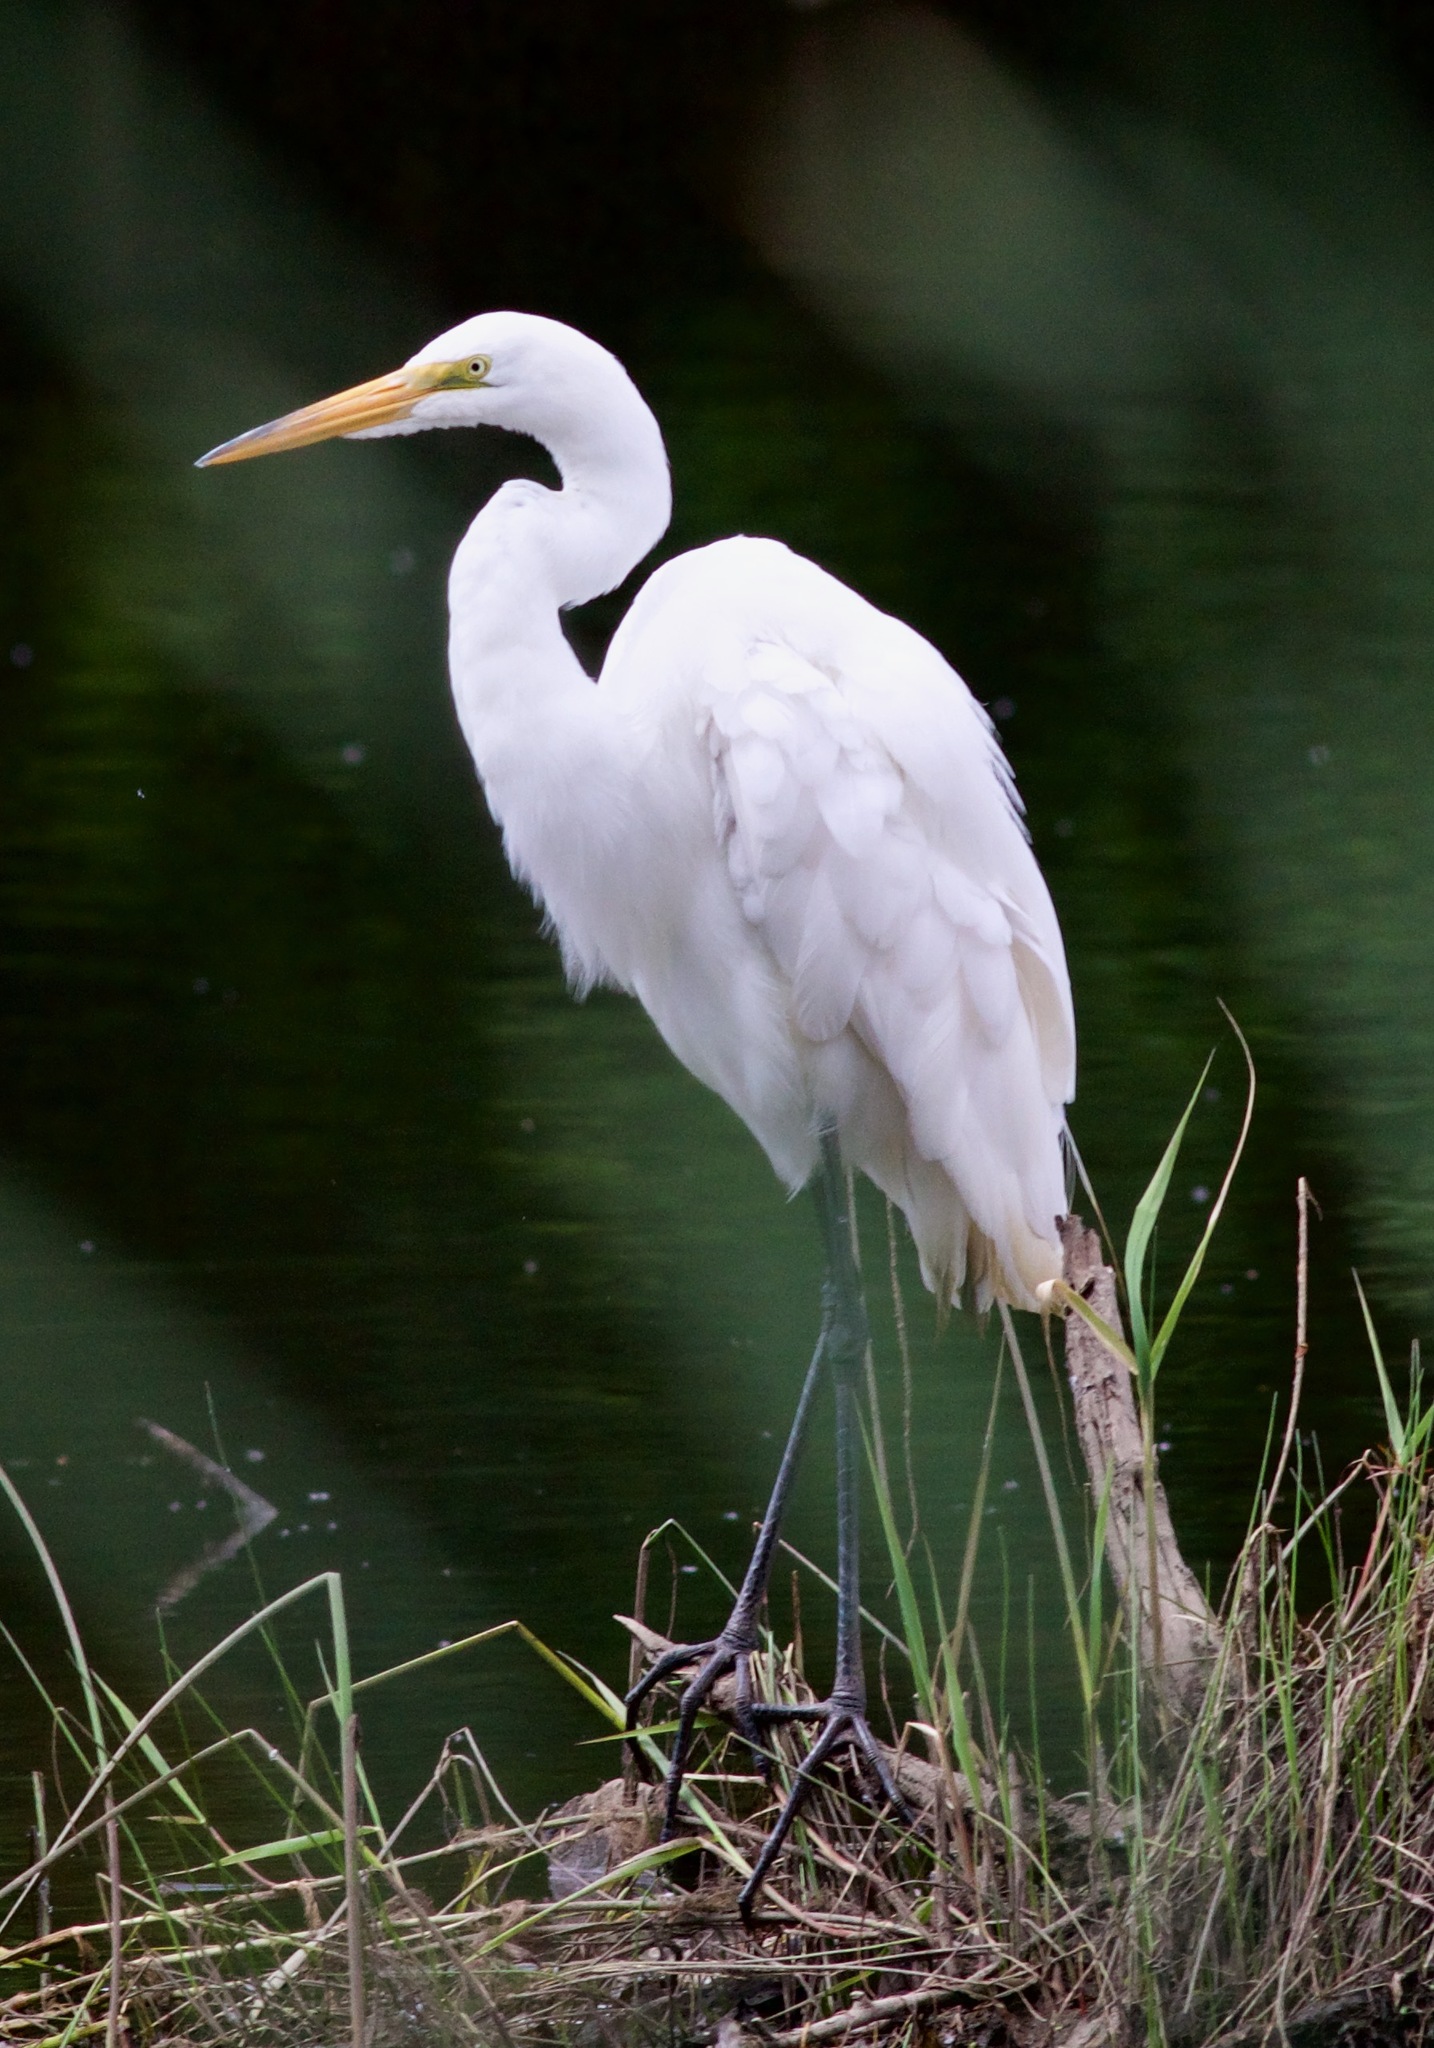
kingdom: Animalia
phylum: Chordata
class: Aves
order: Pelecaniformes
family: Ardeidae
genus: Ardea
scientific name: Ardea alba
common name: Great egret
